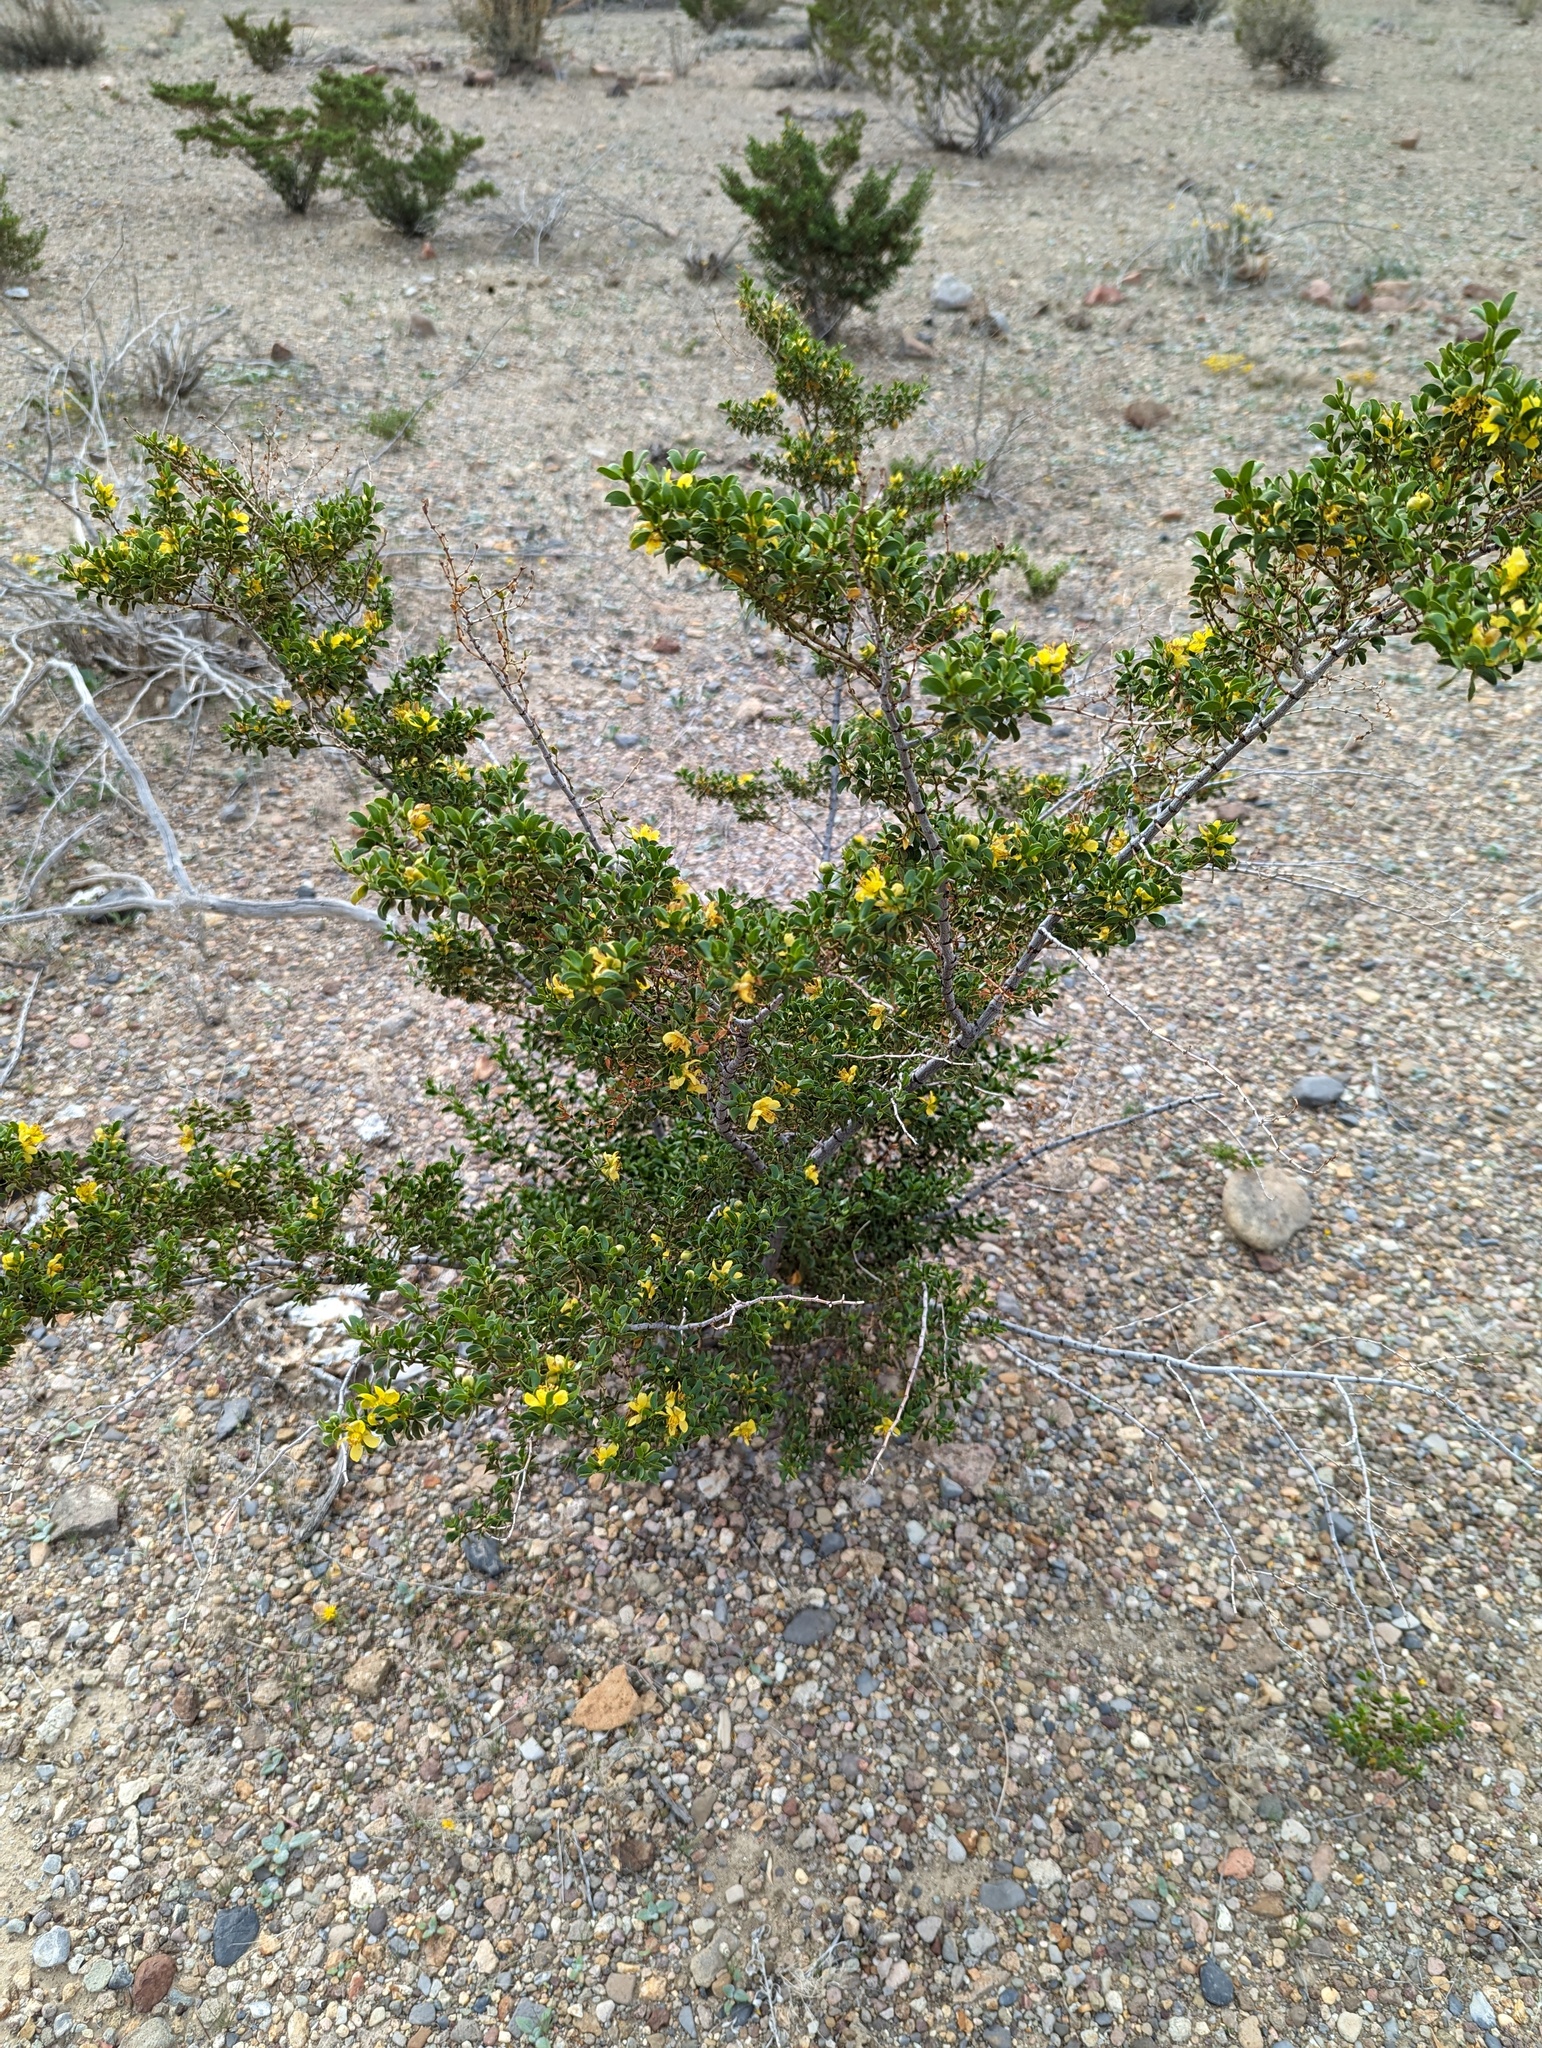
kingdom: Plantae
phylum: Tracheophyta
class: Magnoliopsida
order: Zygophyllales
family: Zygophyllaceae
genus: Larrea
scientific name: Larrea tridentata
